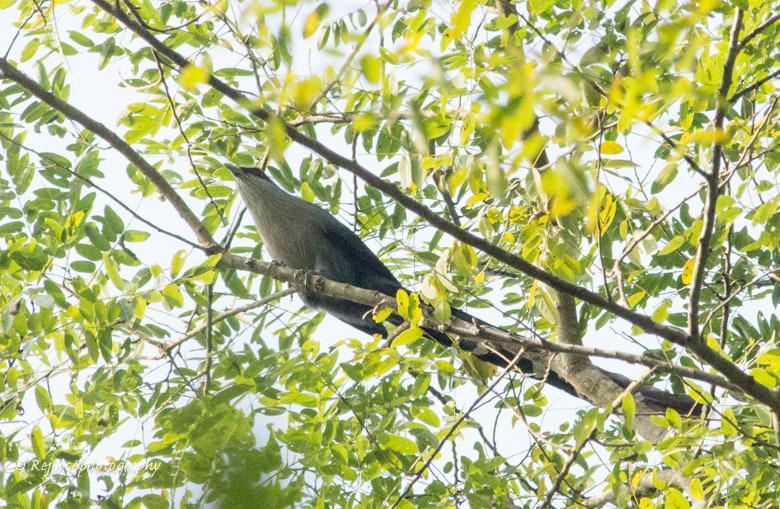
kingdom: Animalia
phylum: Chordata
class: Aves
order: Cuculiformes
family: Cuculidae
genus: Rhopodytes
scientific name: Rhopodytes tristis
